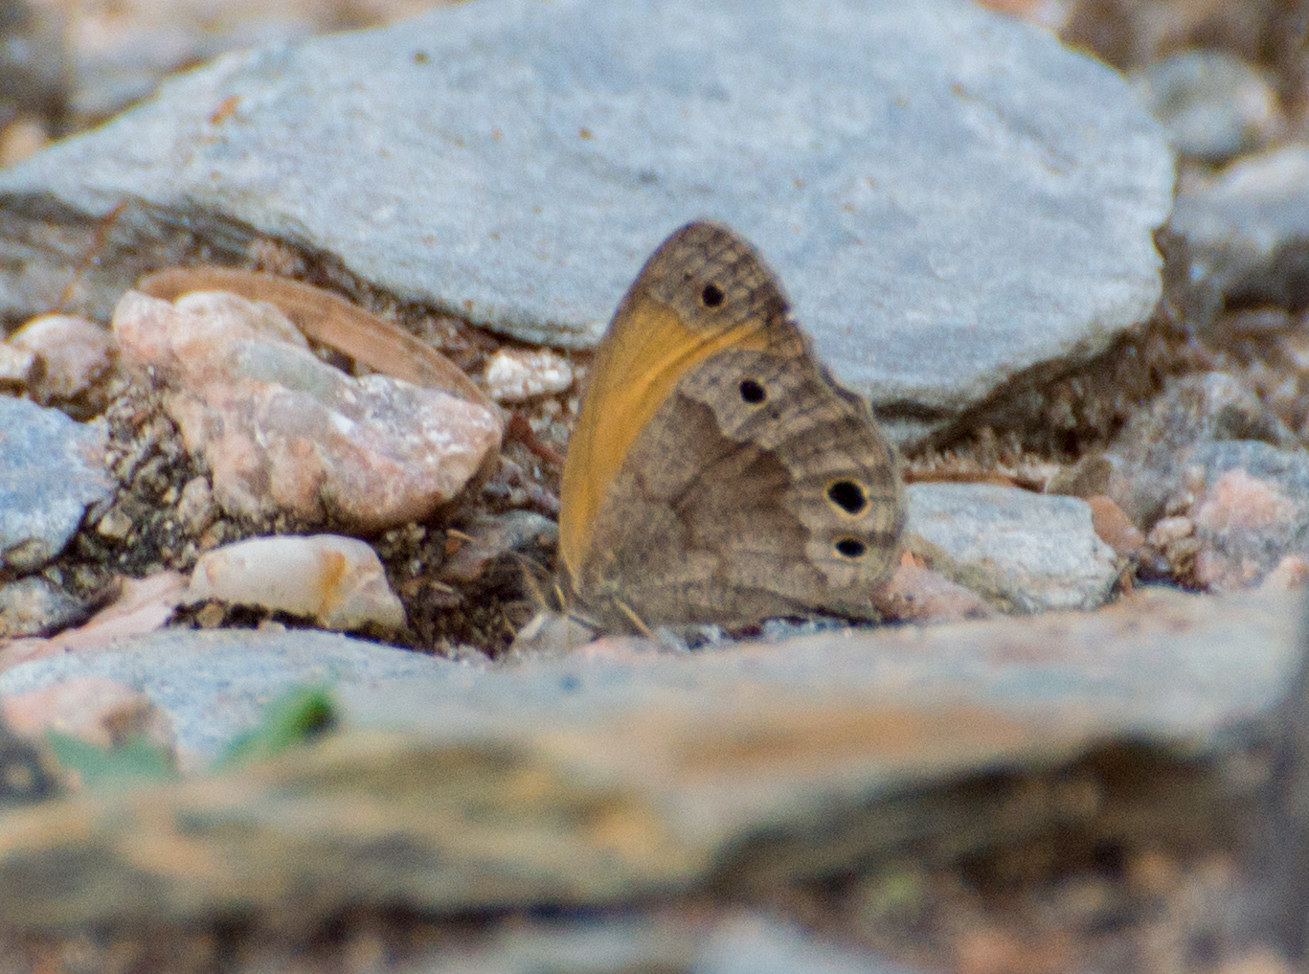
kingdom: Animalia
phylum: Arthropoda
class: Insecta
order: Lepidoptera
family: Nymphalidae
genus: Pharneuptychia
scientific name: Pharneuptychia phares
